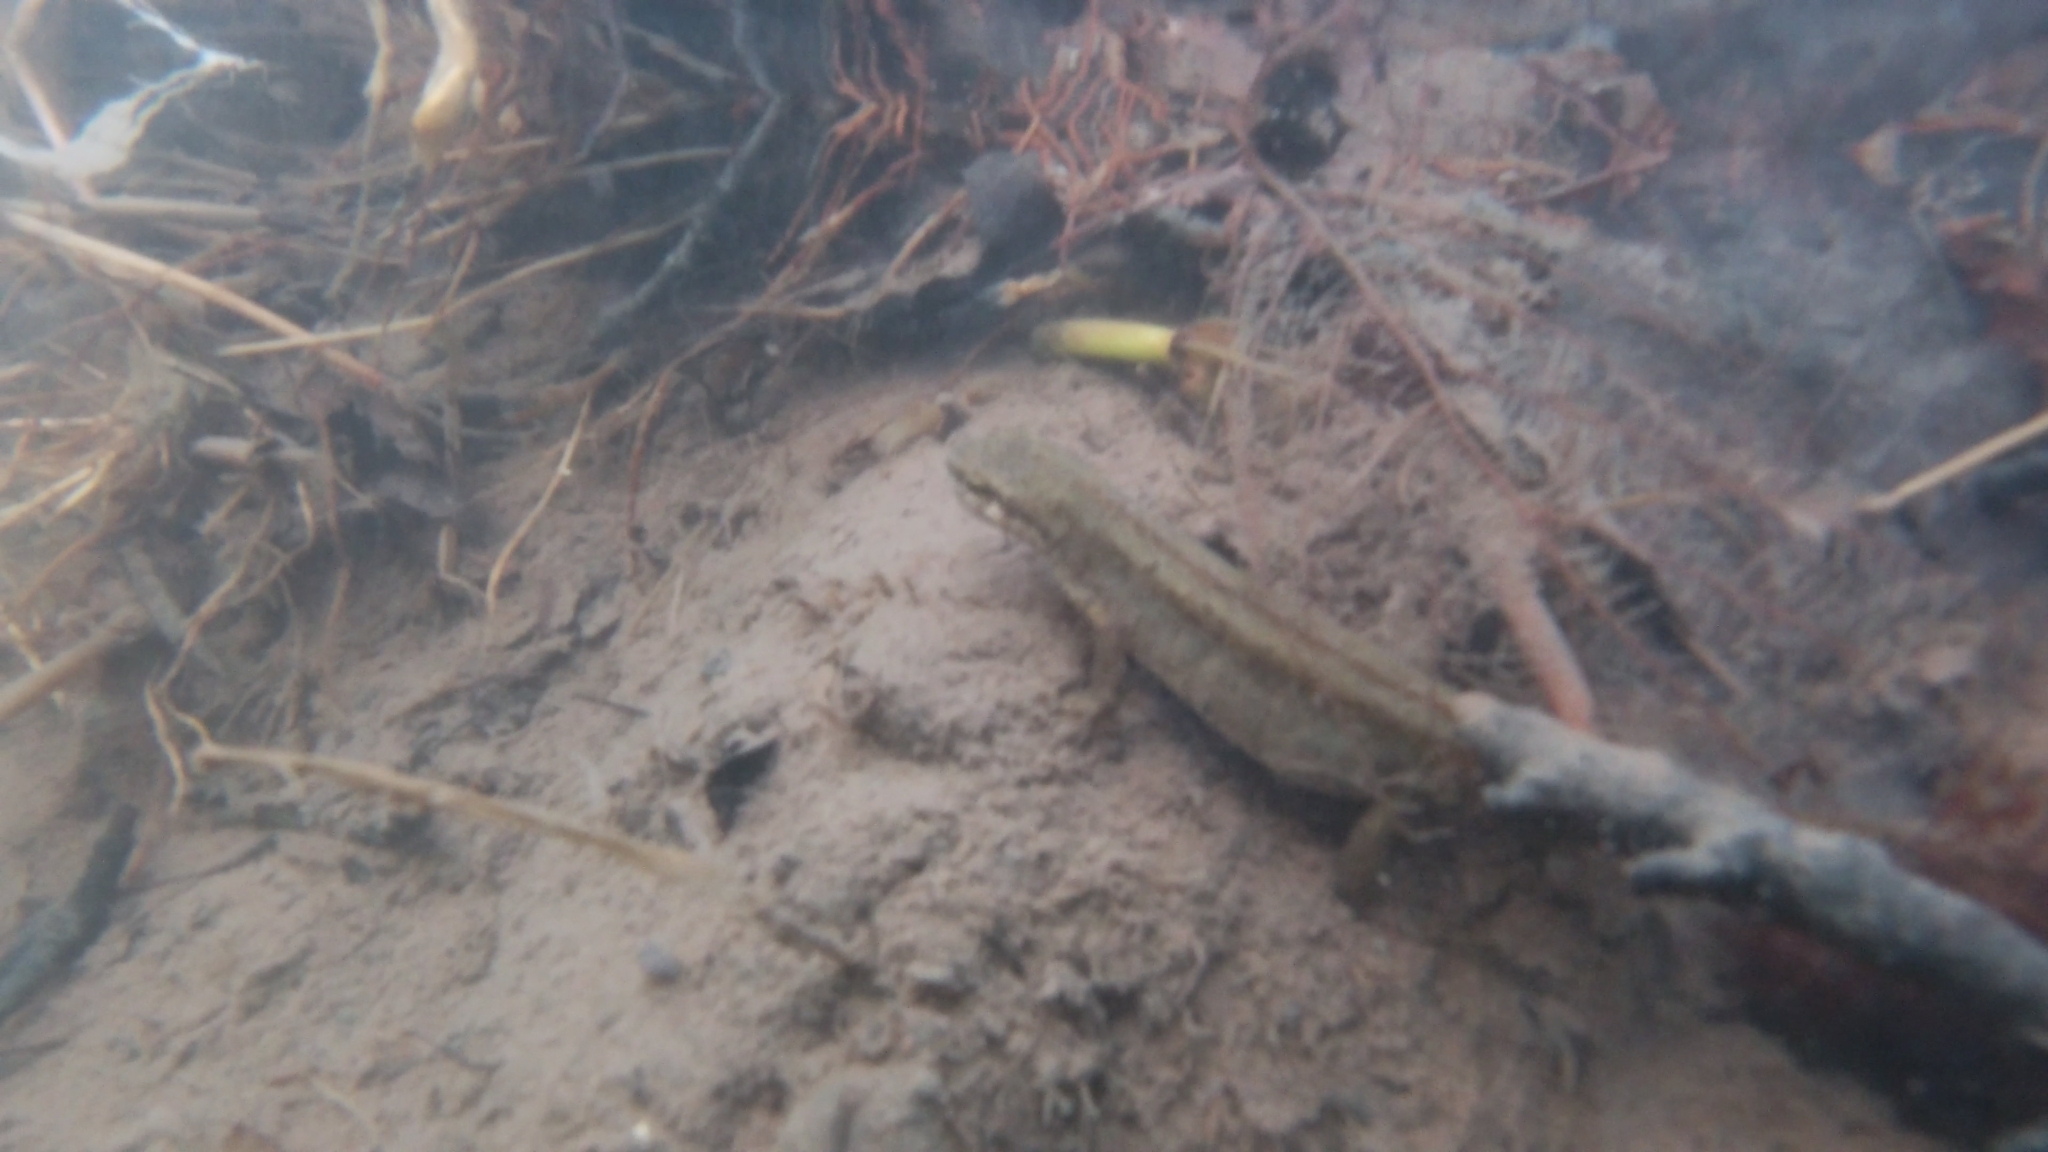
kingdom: Animalia
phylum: Chordata
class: Amphibia
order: Caudata
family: Salamandridae
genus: Lissotriton
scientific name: Lissotriton vulgaris
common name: Smooth newt
